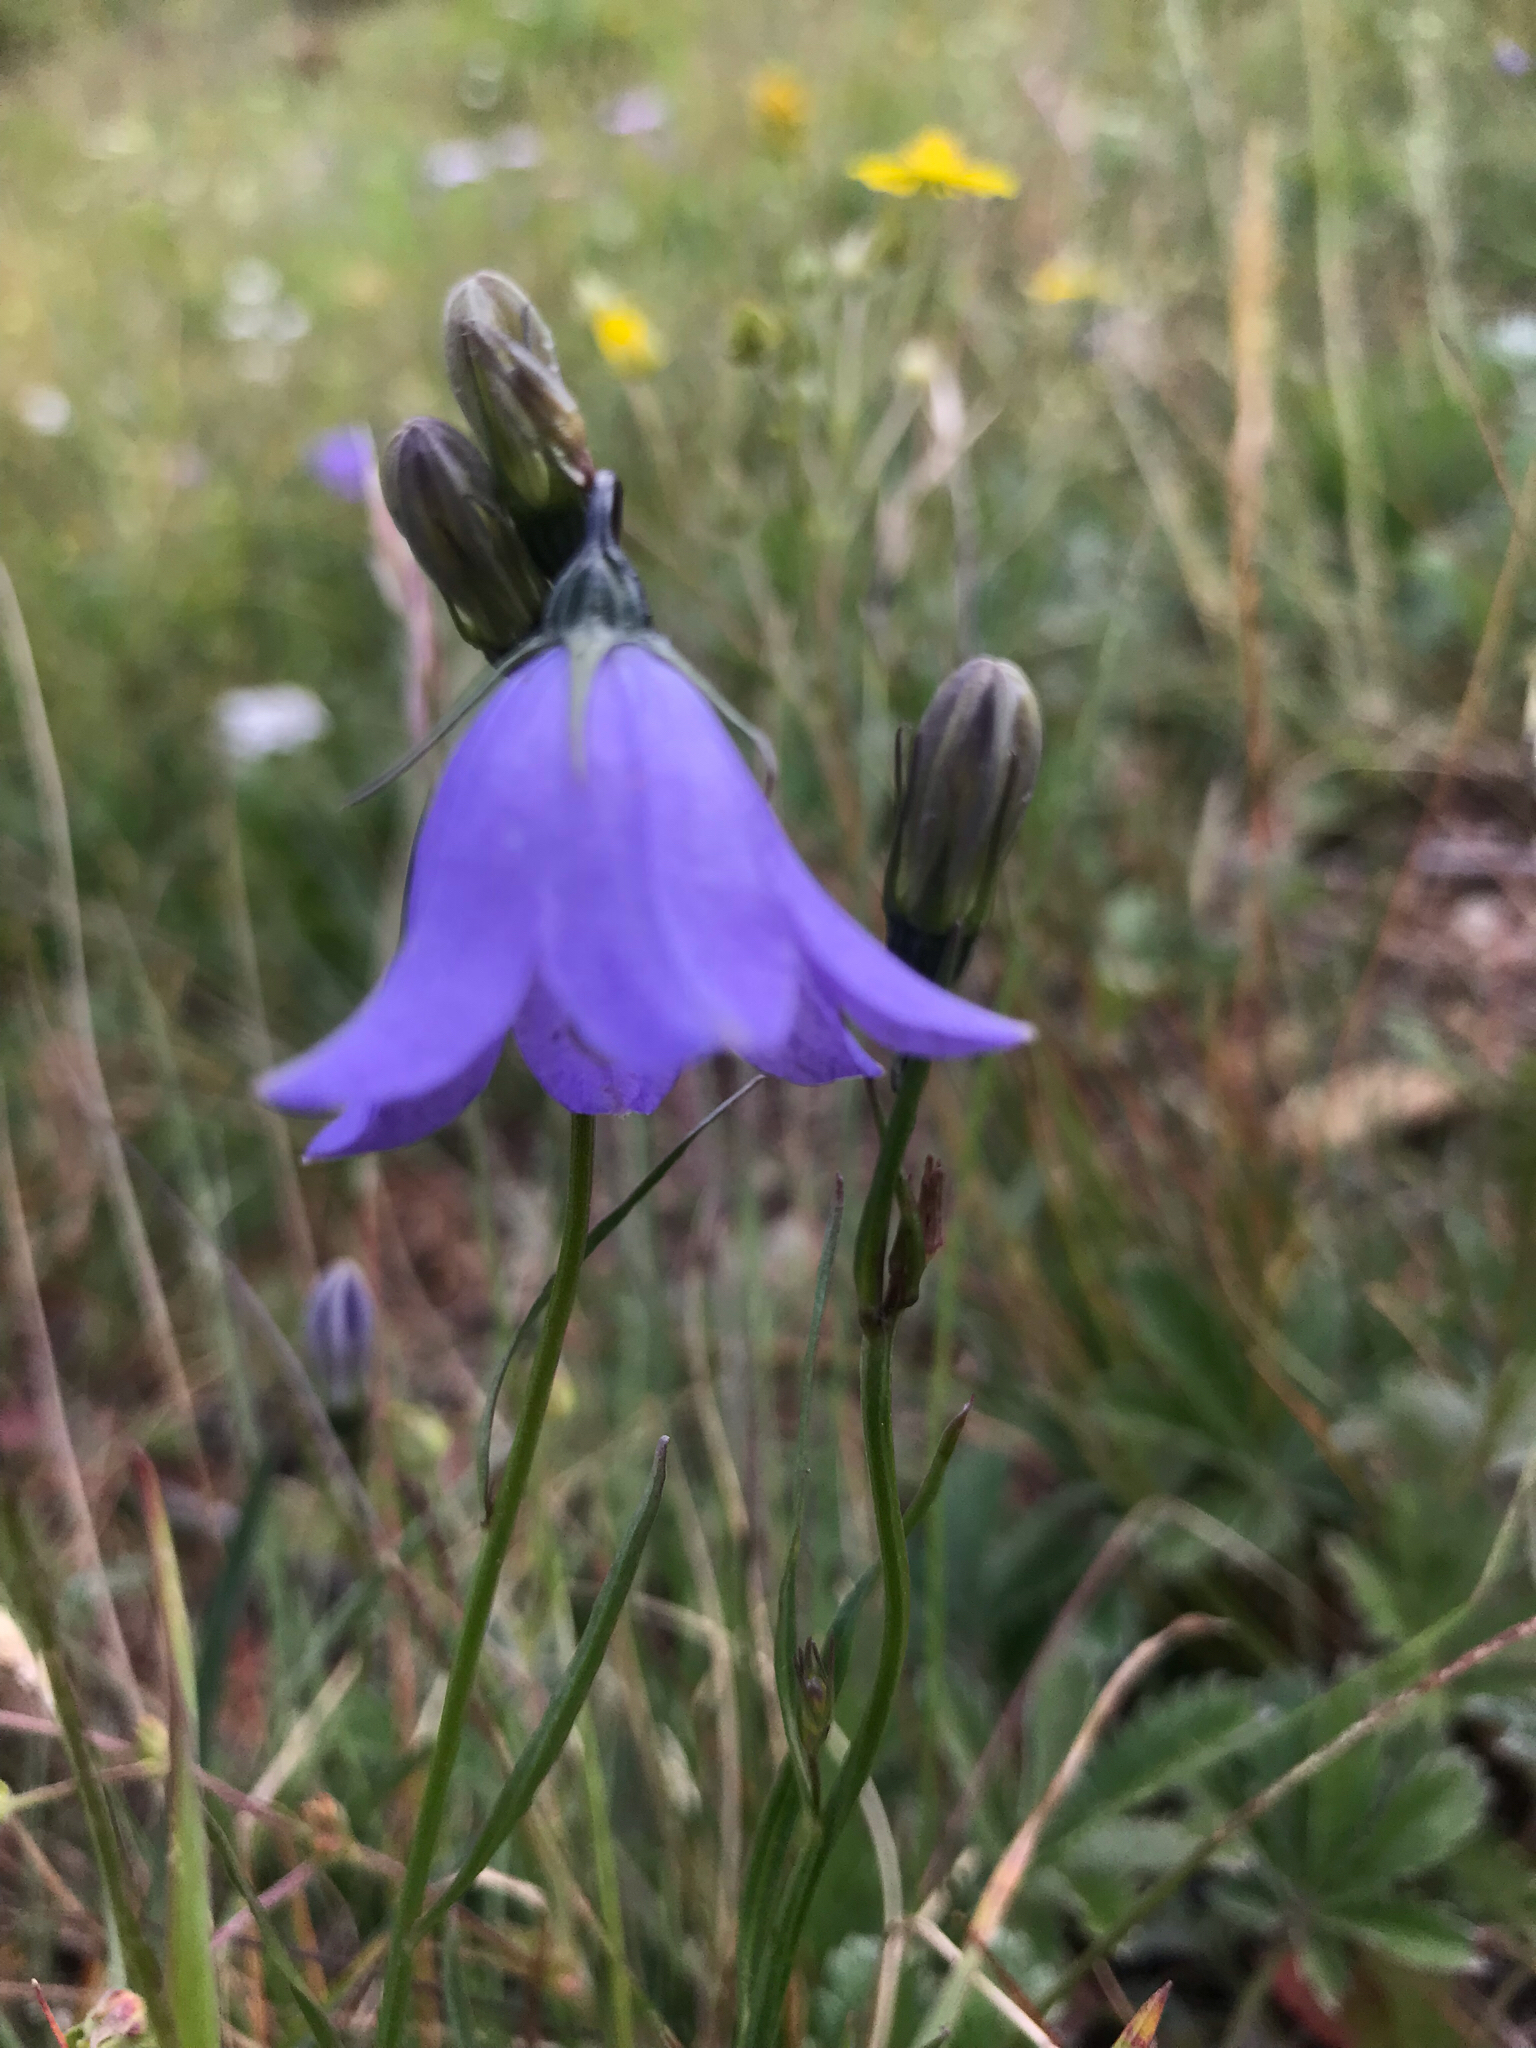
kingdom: Plantae
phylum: Tracheophyta
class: Magnoliopsida
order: Asterales
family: Campanulaceae
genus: Campanula
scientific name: Campanula petiolata
